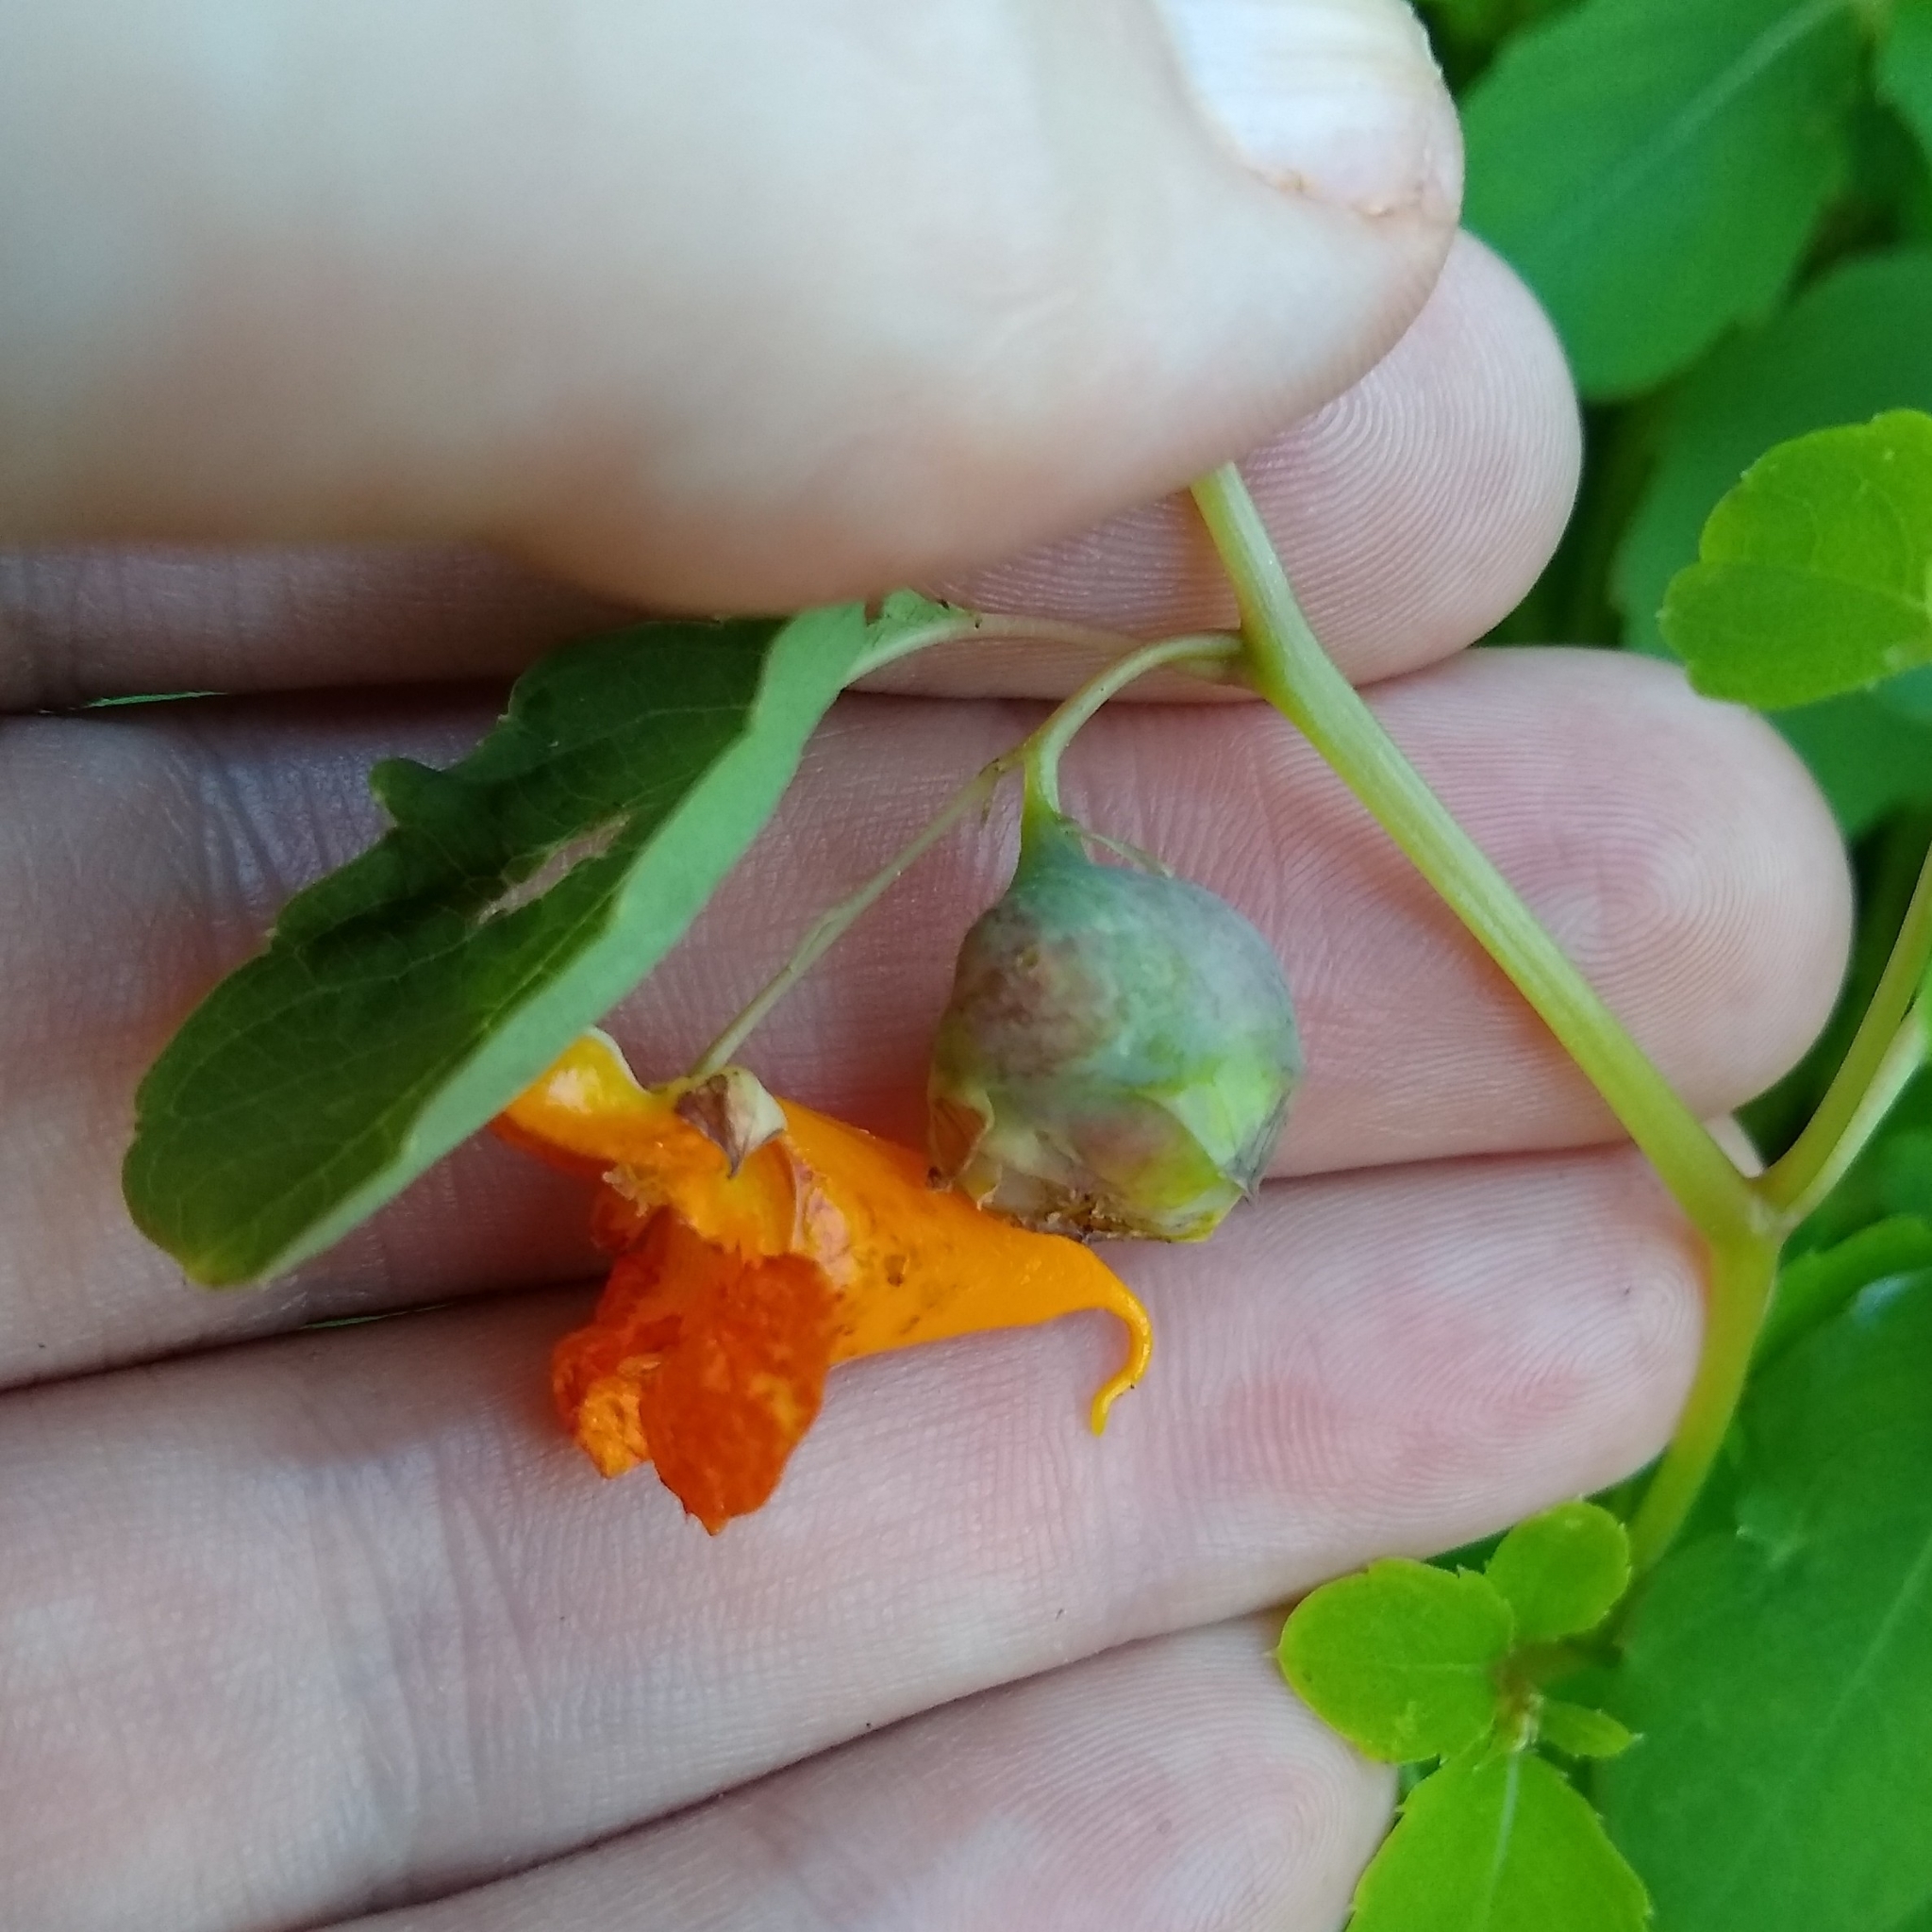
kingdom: Plantae
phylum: Tracheophyta
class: Magnoliopsida
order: Ericales
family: Balsaminaceae
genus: Impatiens
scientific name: Impatiens capensis
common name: Orange balsam
